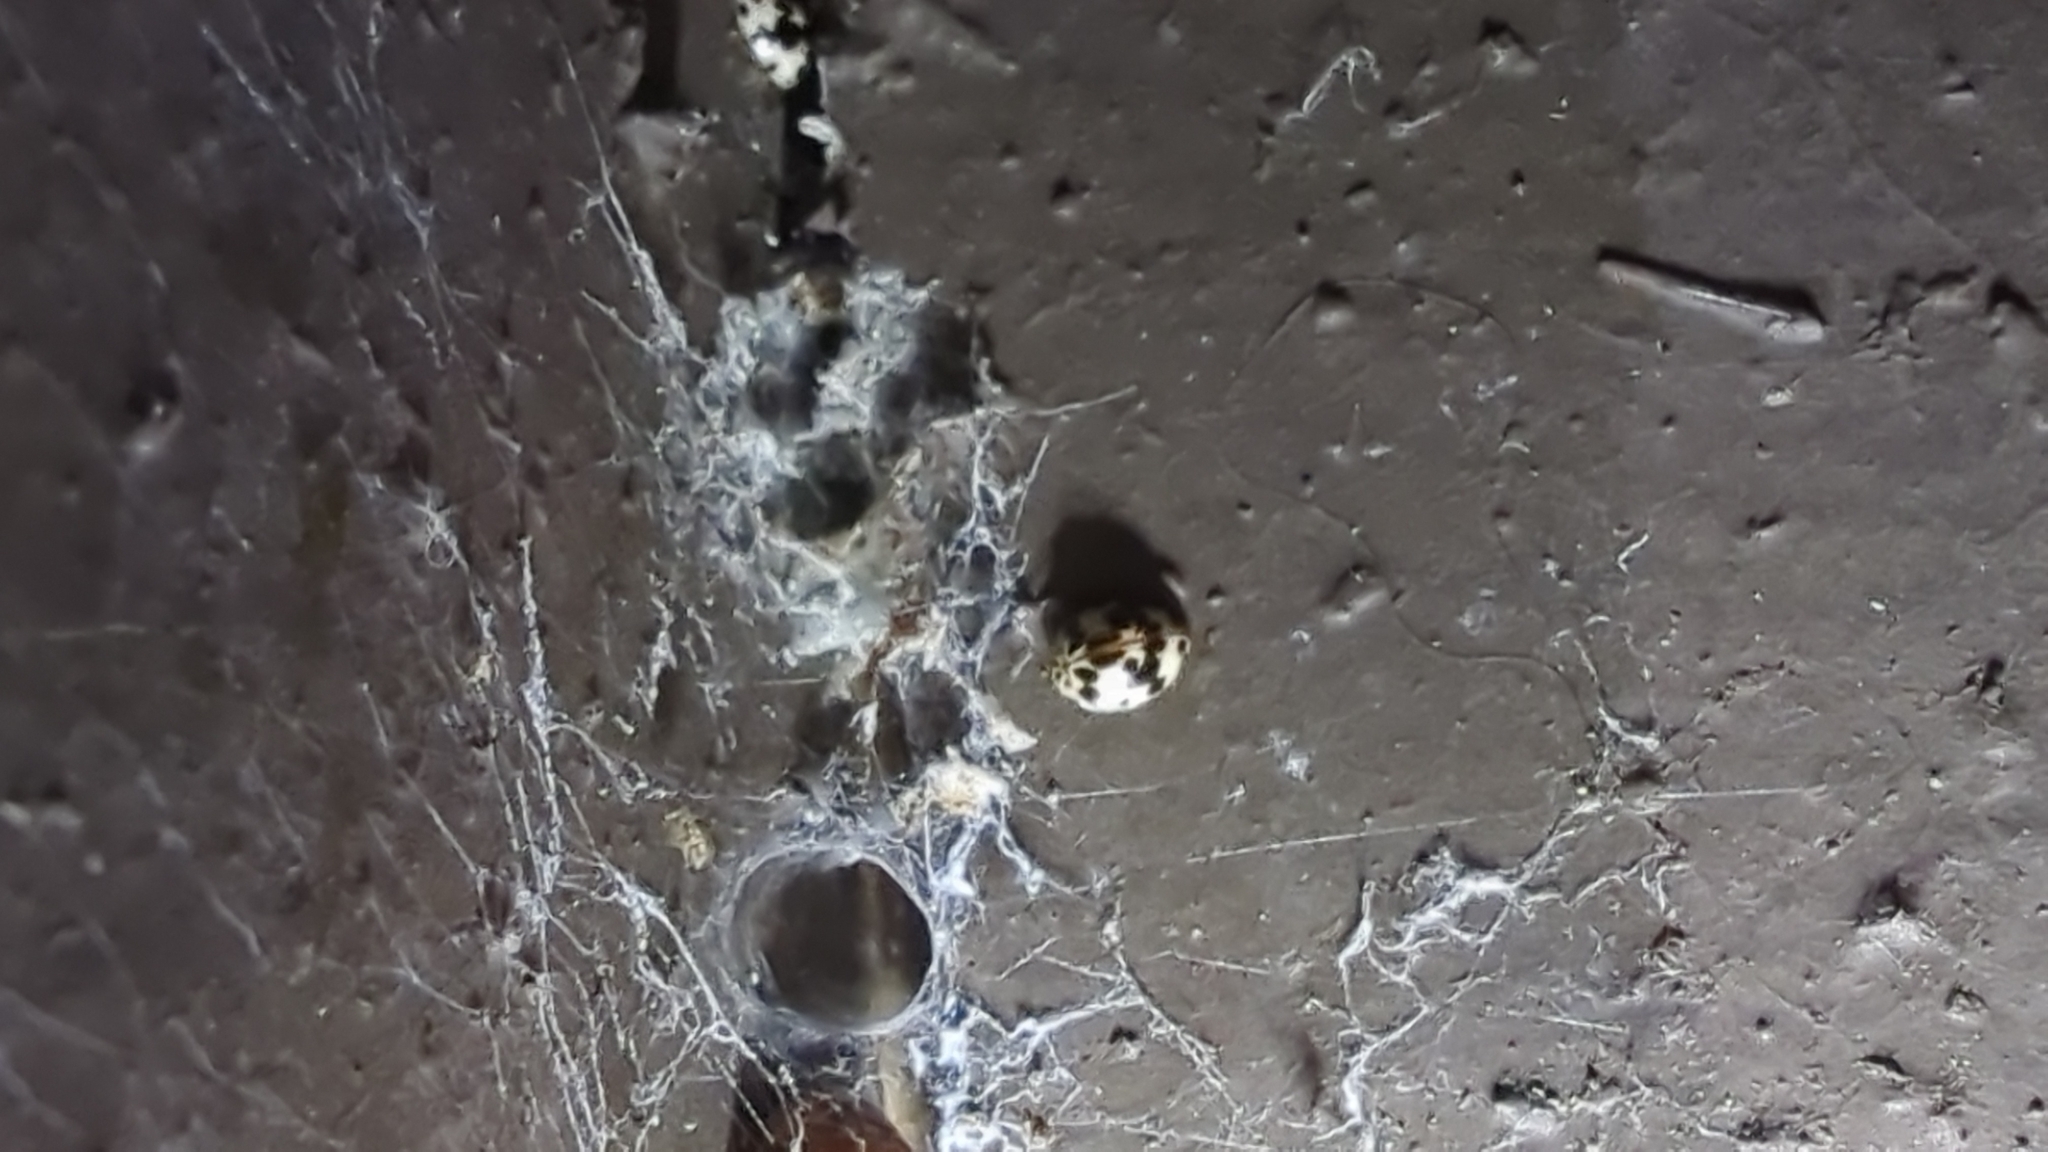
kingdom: Animalia
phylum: Arthropoda
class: Insecta
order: Coleoptera
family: Coccinellidae
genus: Psyllobora
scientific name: Psyllobora borealis
